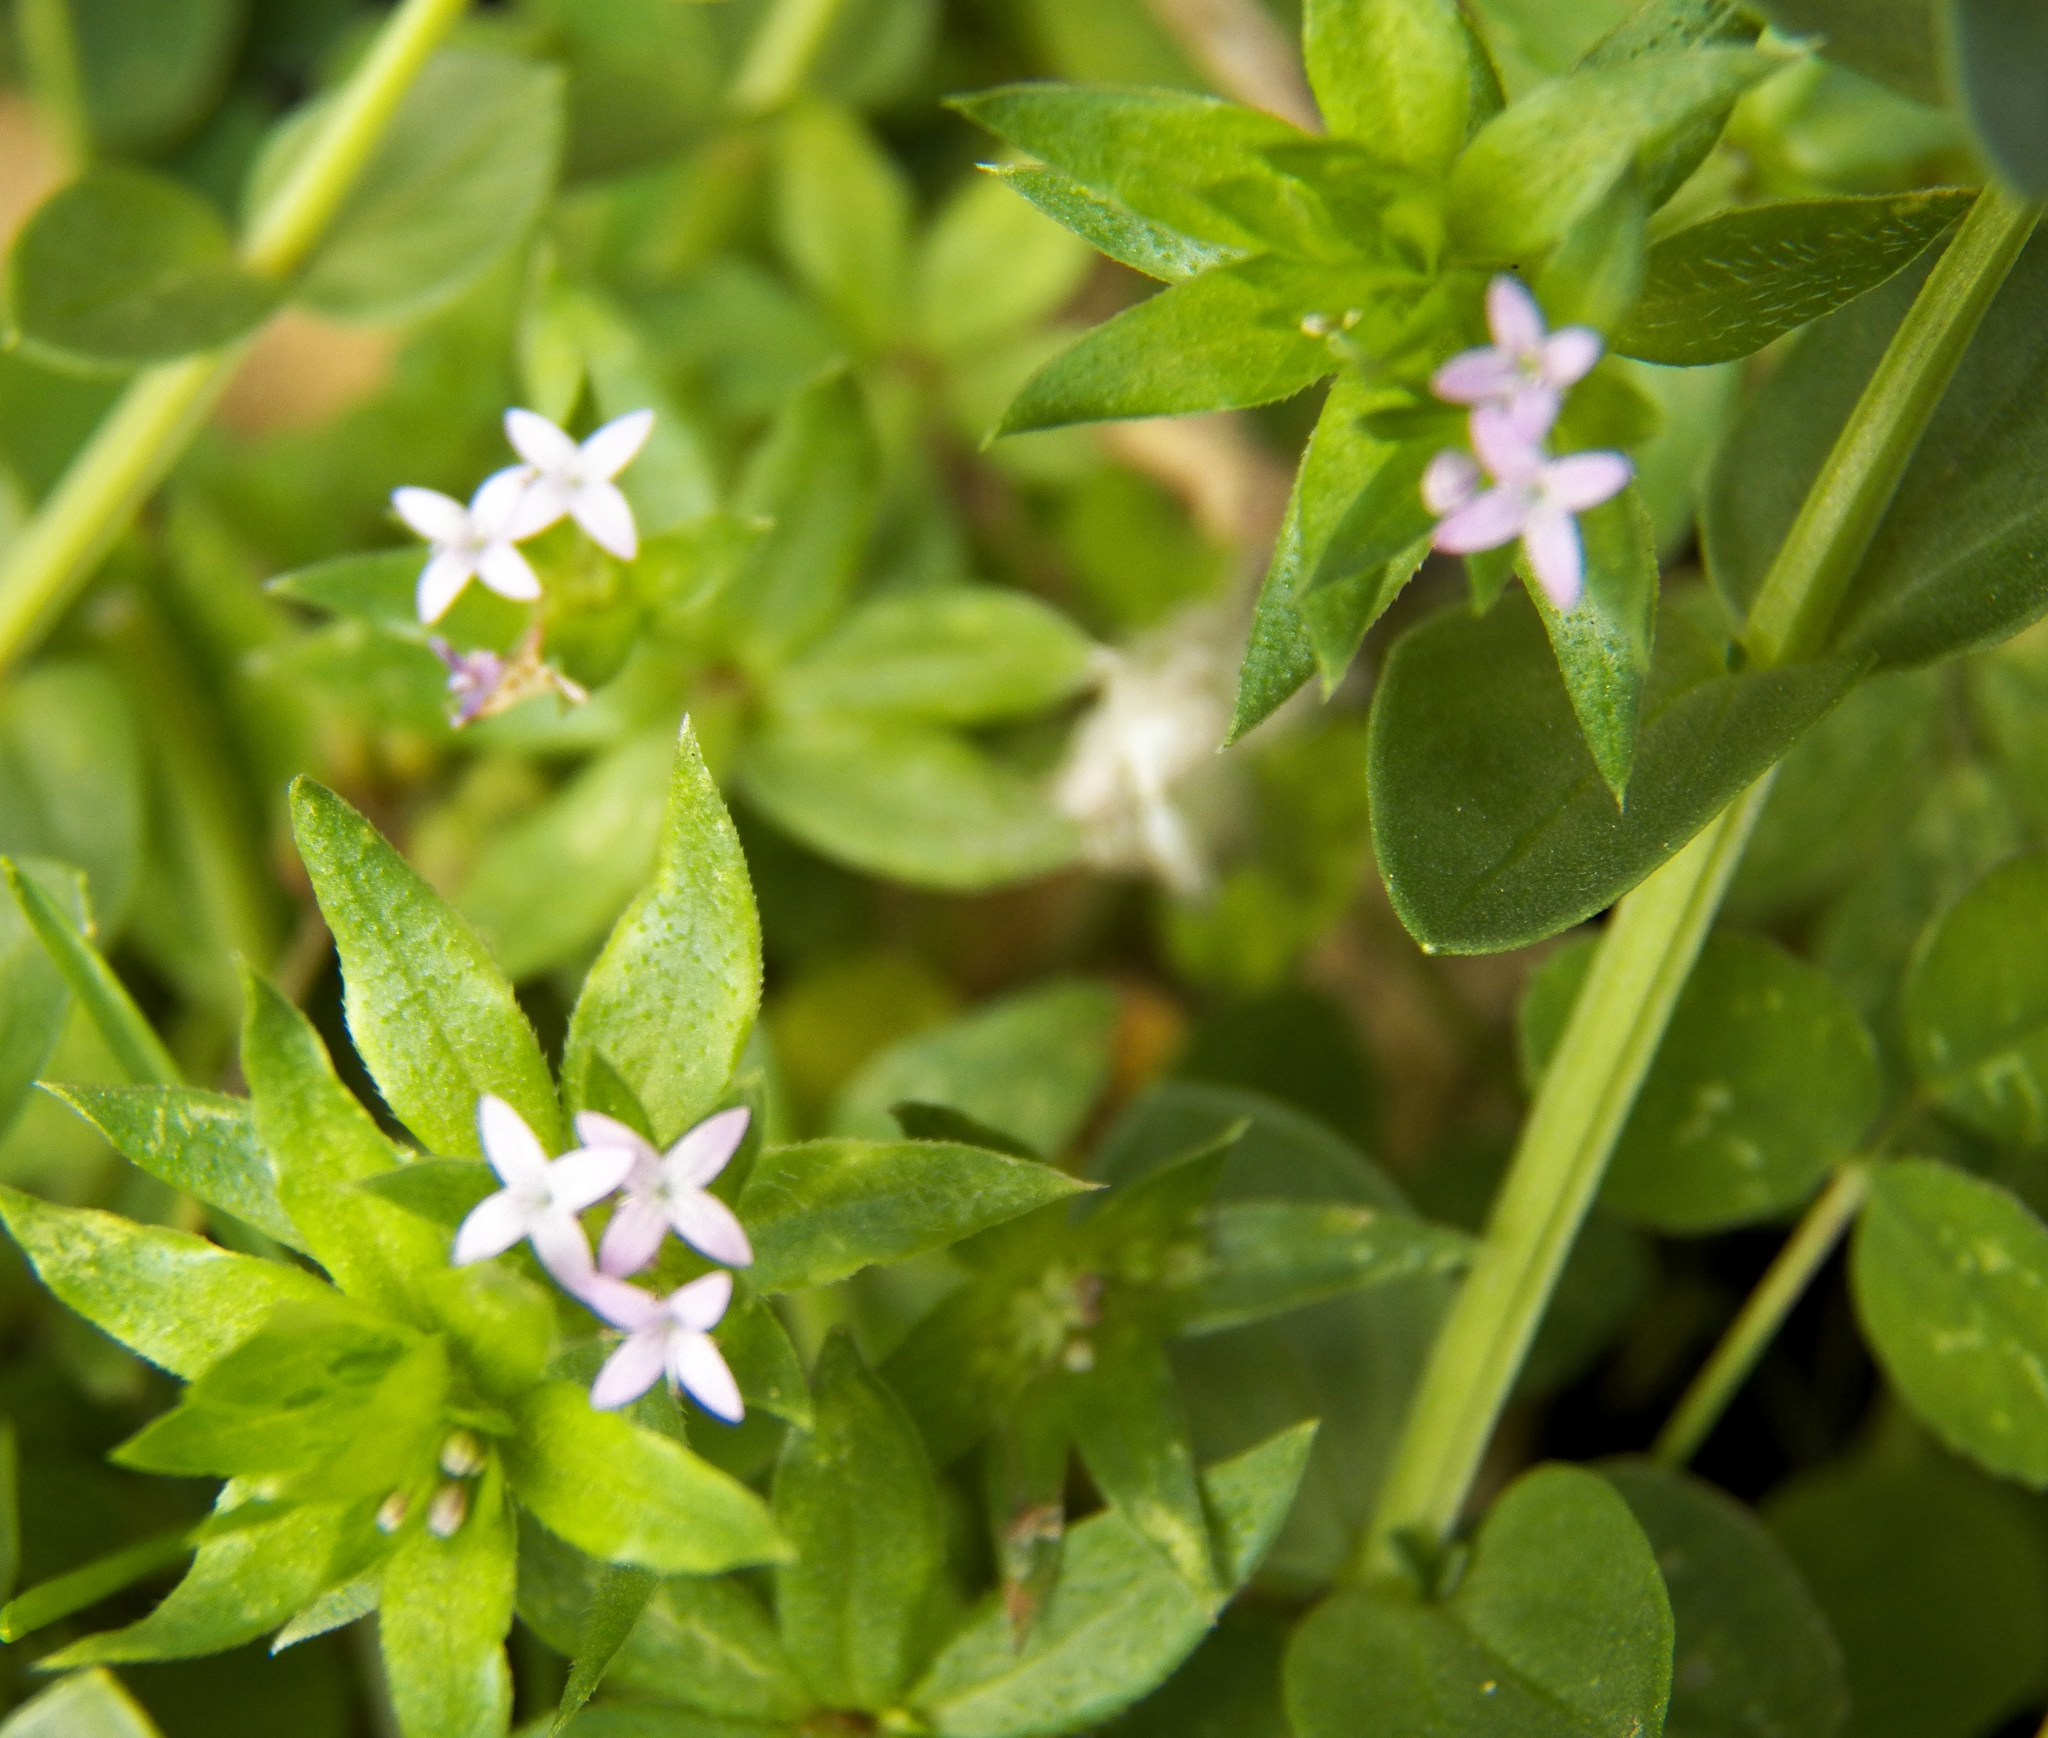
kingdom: Plantae
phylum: Tracheophyta
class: Magnoliopsida
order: Gentianales
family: Rubiaceae
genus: Sherardia
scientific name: Sherardia arvensis
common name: Field madder
